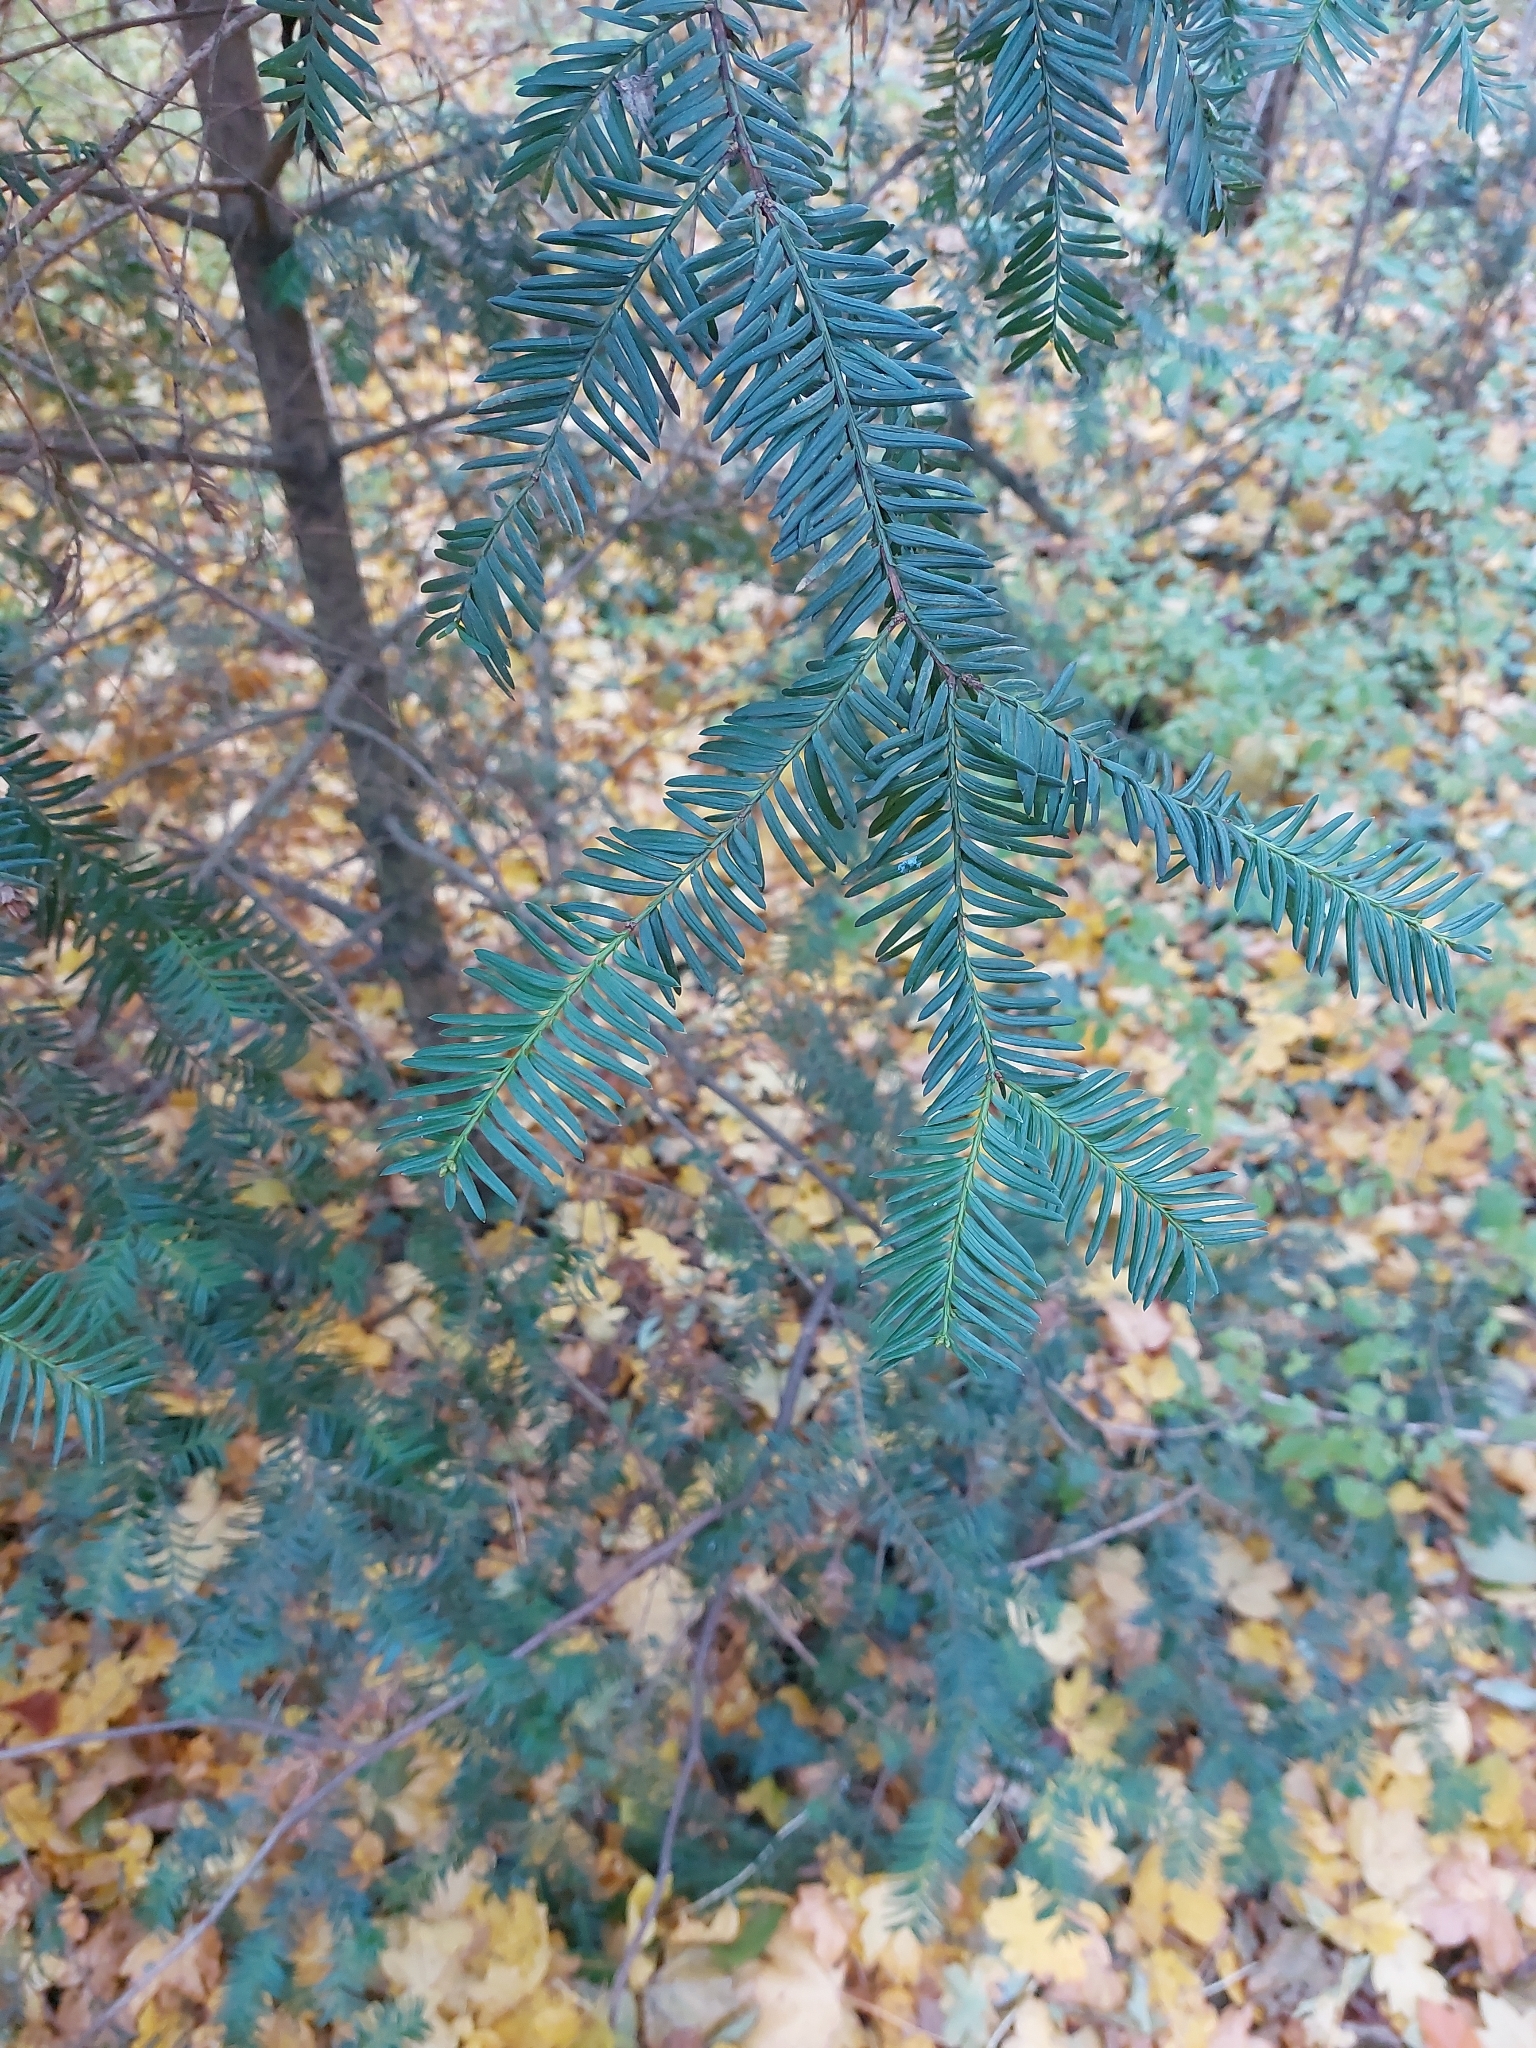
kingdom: Plantae
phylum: Tracheophyta
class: Pinopsida
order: Pinales
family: Taxaceae
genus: Taxus
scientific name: Taxus baccata
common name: Yew
